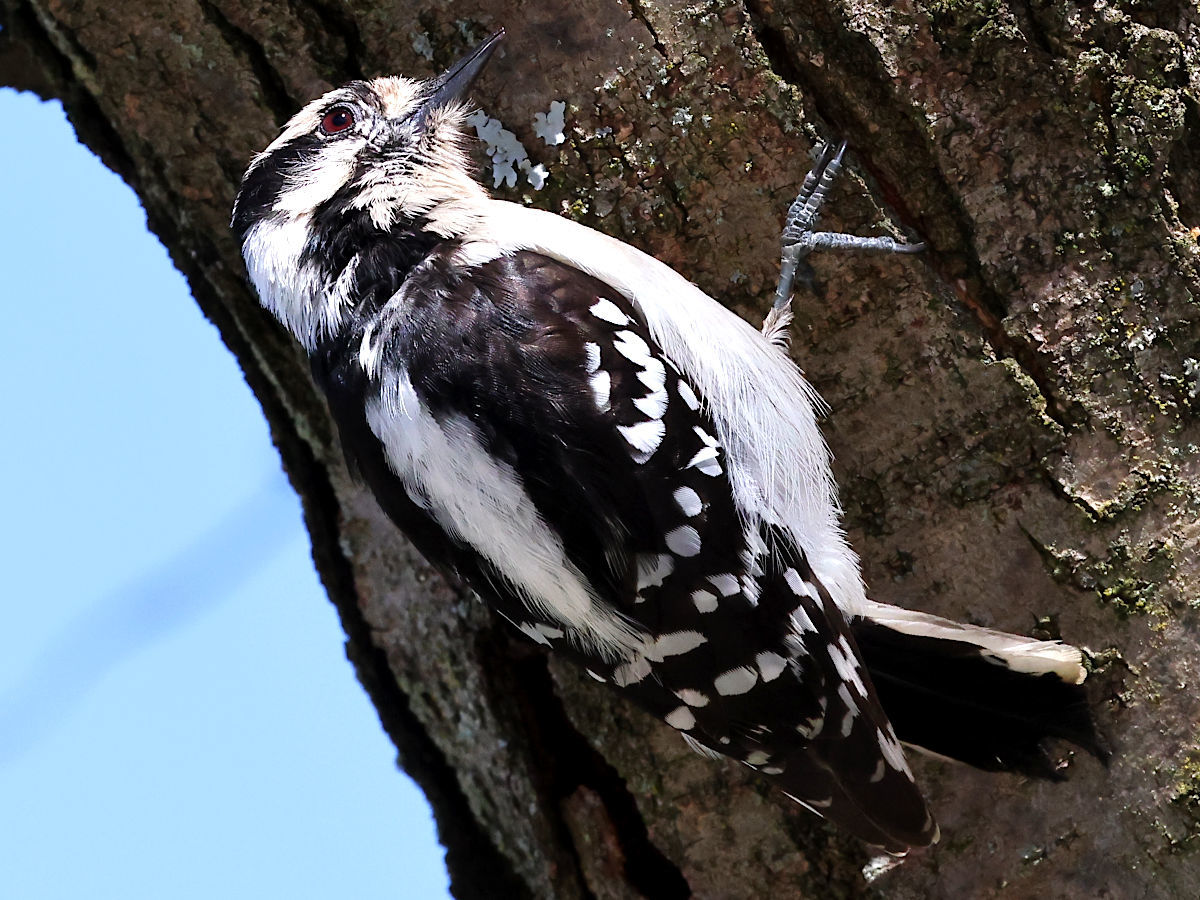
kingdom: Animalia
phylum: Chordata
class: Aves
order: Piciformes
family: Picidae
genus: Dryobates
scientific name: Dryobates pubescens
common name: Downy woodpecker
